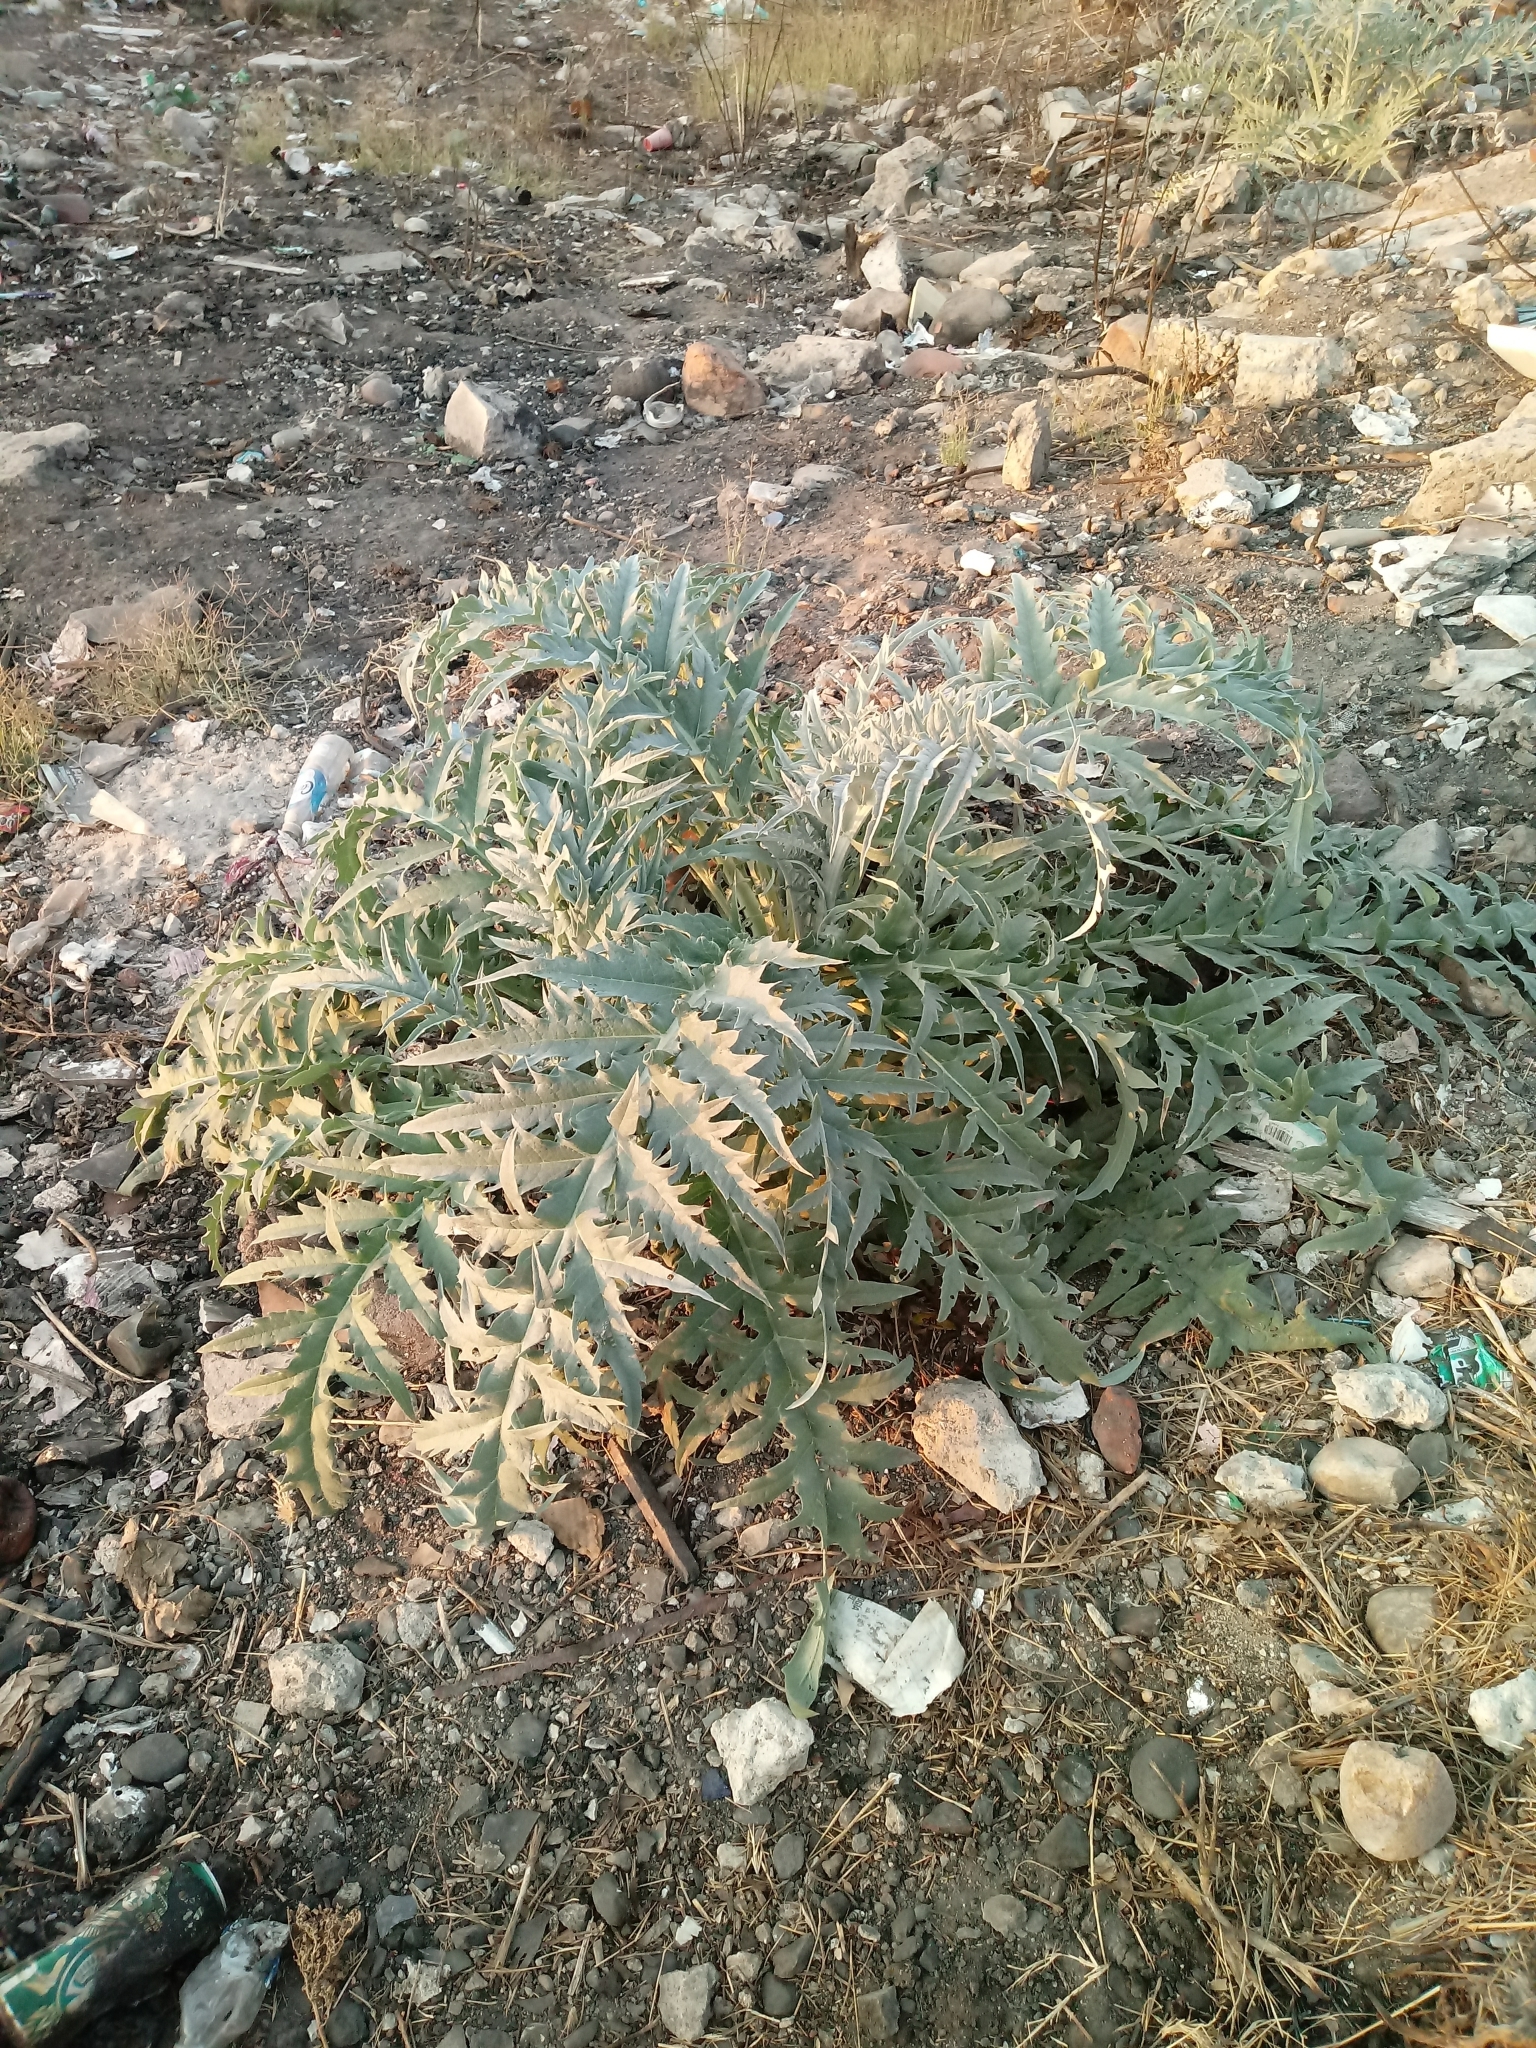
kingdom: Plantae
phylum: Tracheophyta
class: Magnoliopsida
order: Asterales
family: Asteraceae
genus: Cynara
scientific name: Cynara cardunculus
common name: Globe artichoke
